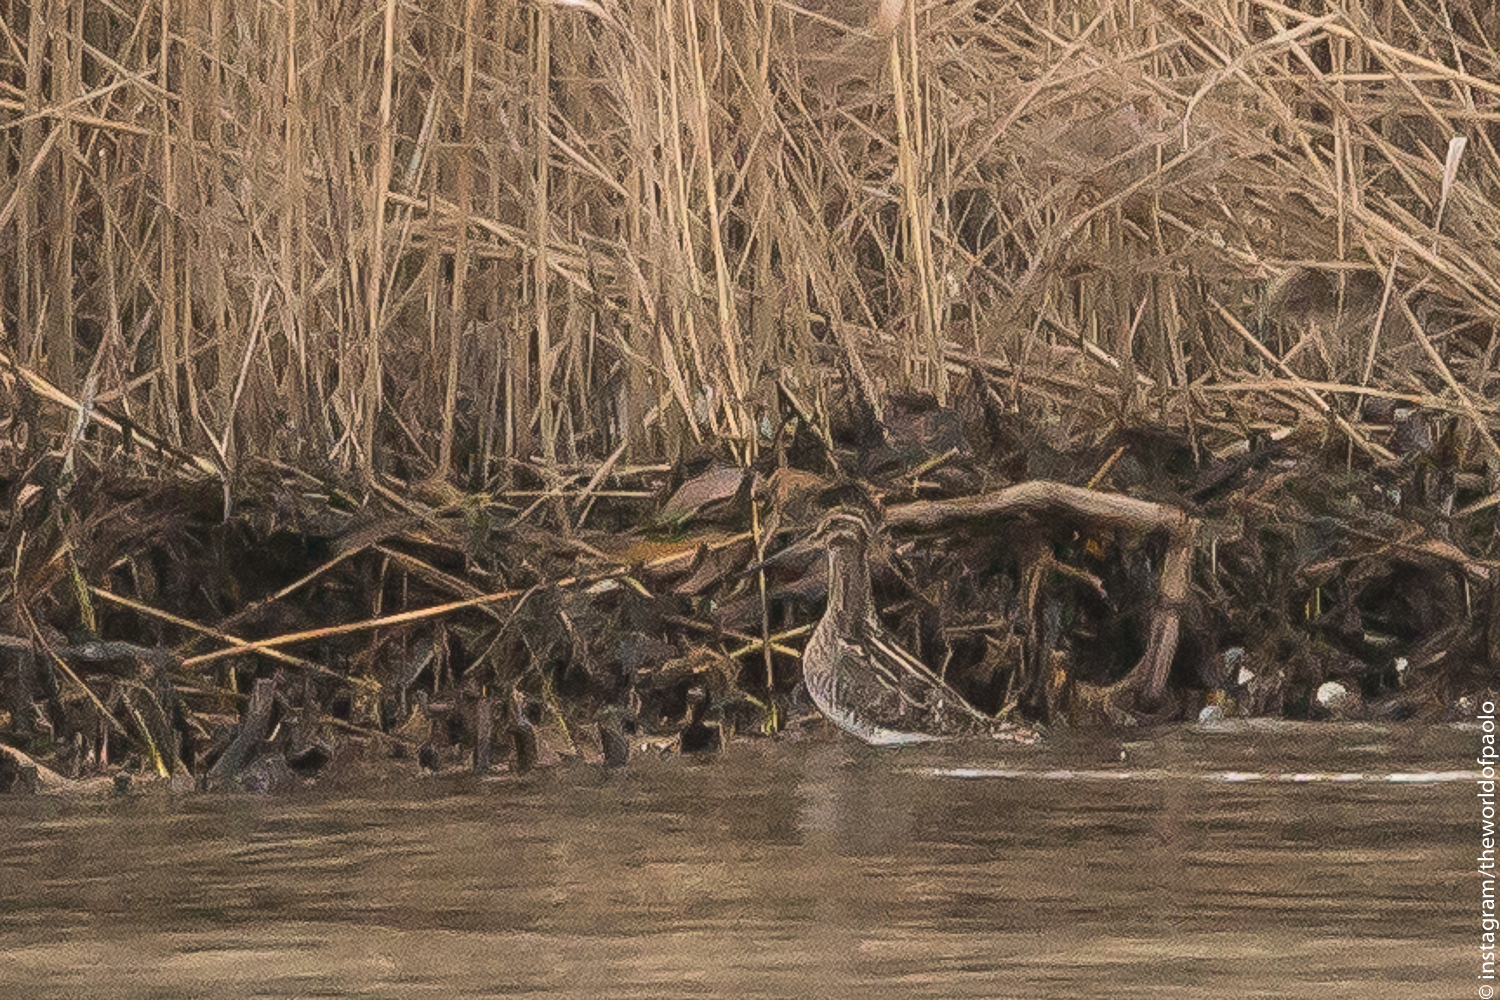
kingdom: Animalia
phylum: Chordata
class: Aves
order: Charadriiformes
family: Scolopacidae
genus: Gallinago
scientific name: Gallinago gallinago
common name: Common snipe
